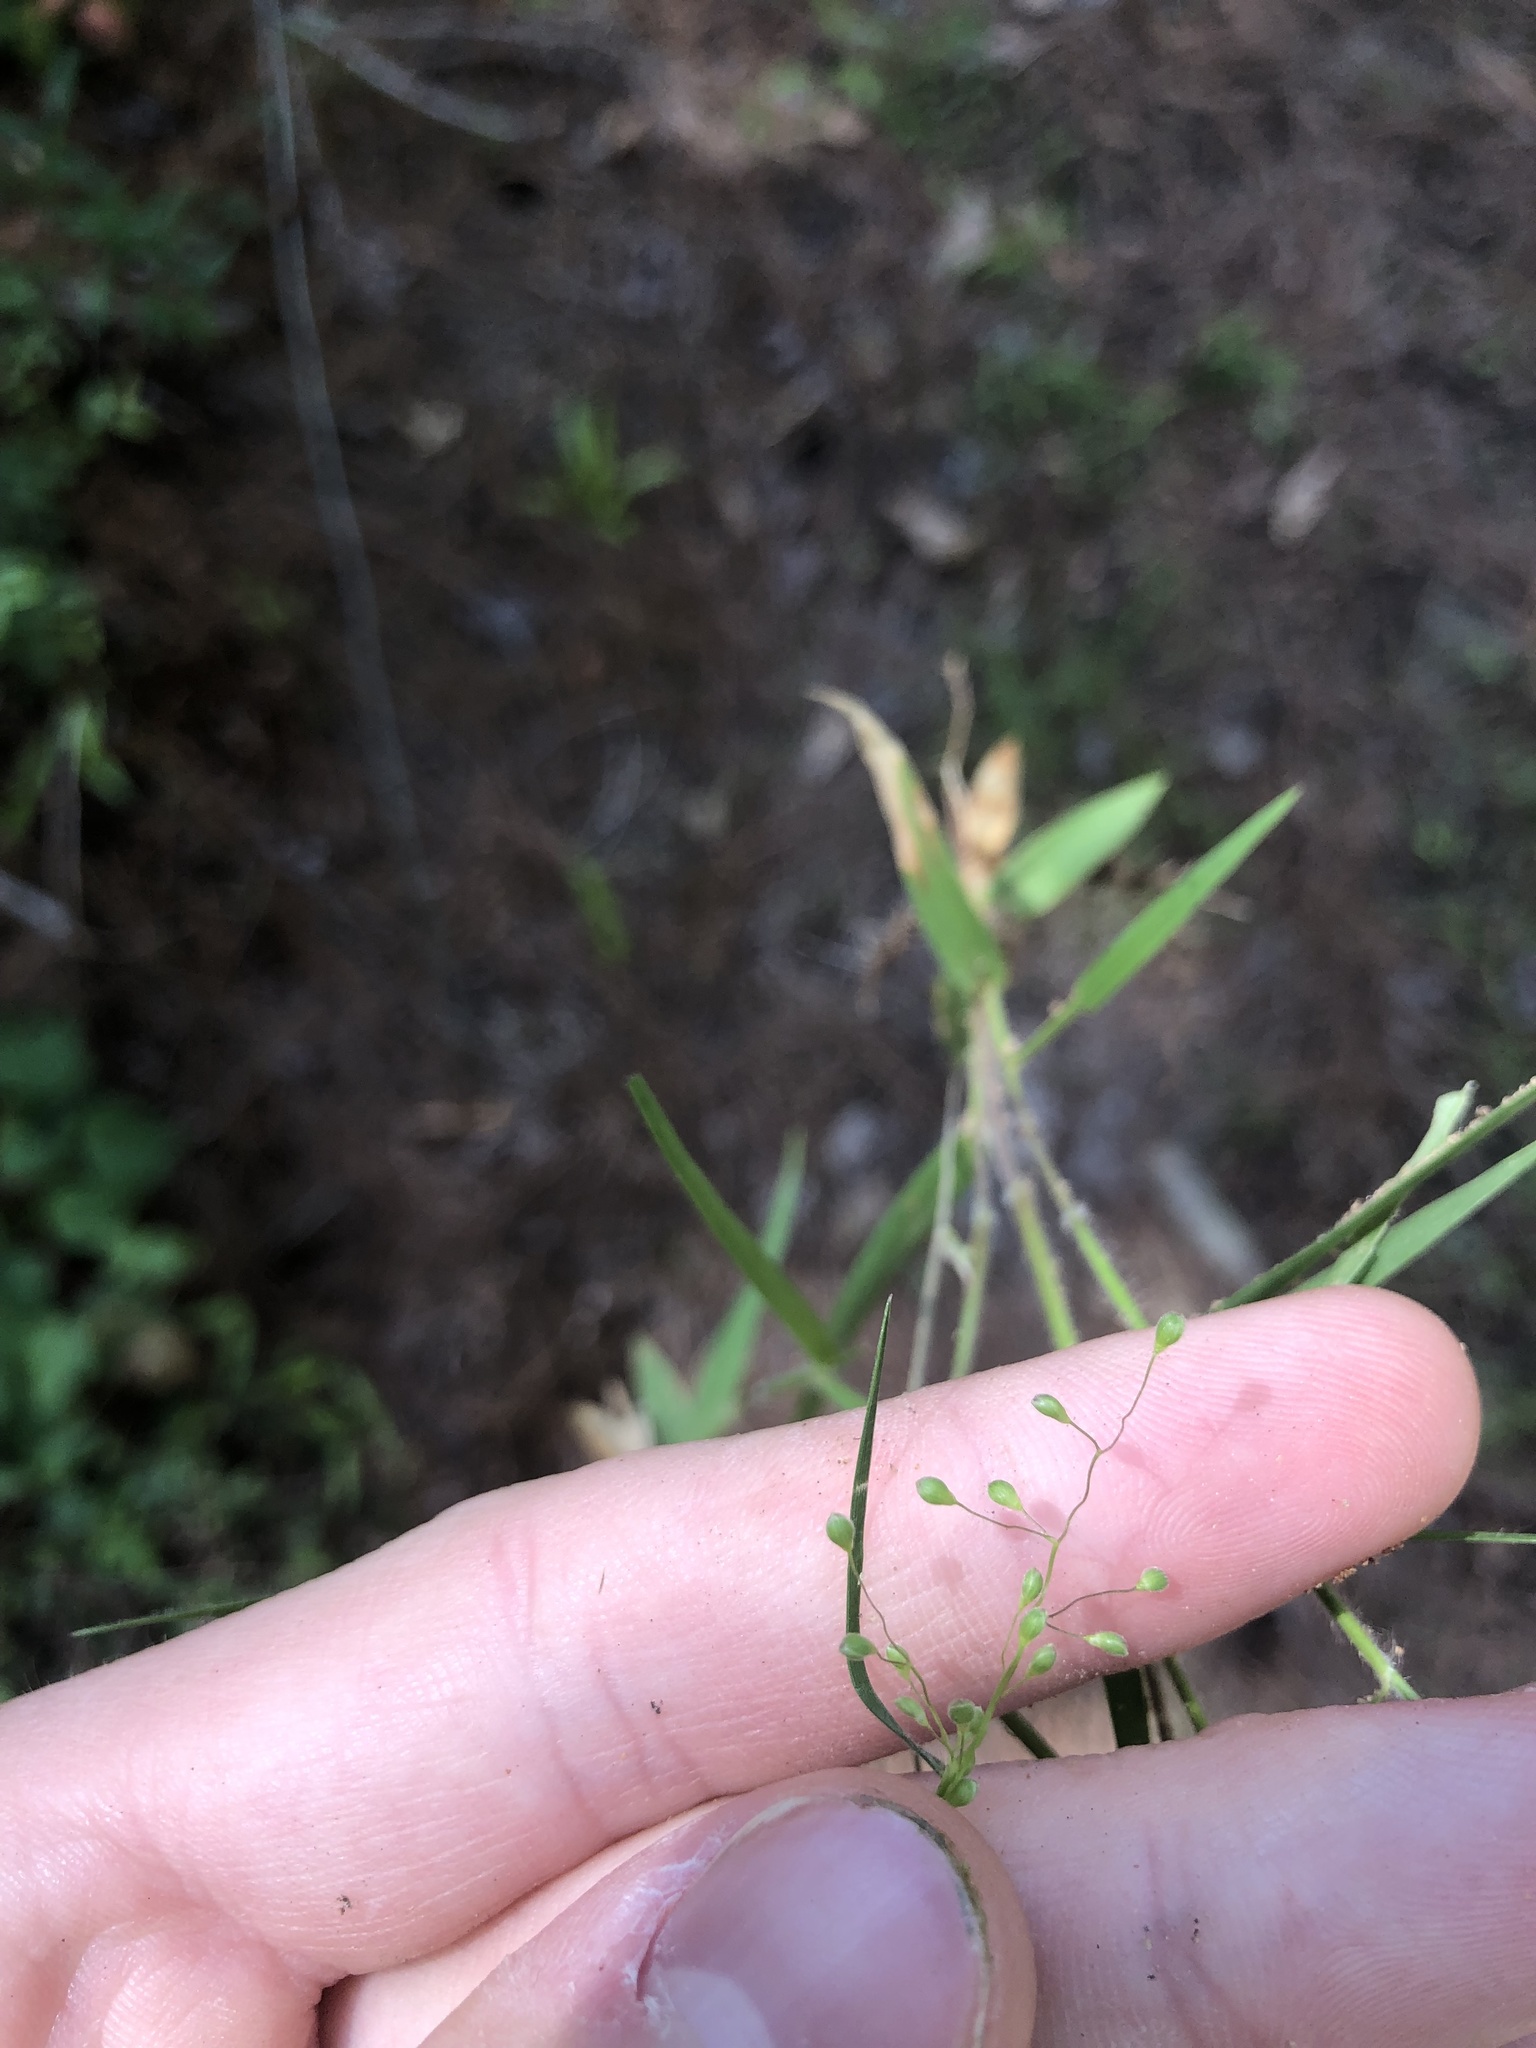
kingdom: Plantae
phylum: Tracheophyta
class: Liliopsida
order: Poales
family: Poaceae
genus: Dichanthelium
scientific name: Dichanthelium filiramum
